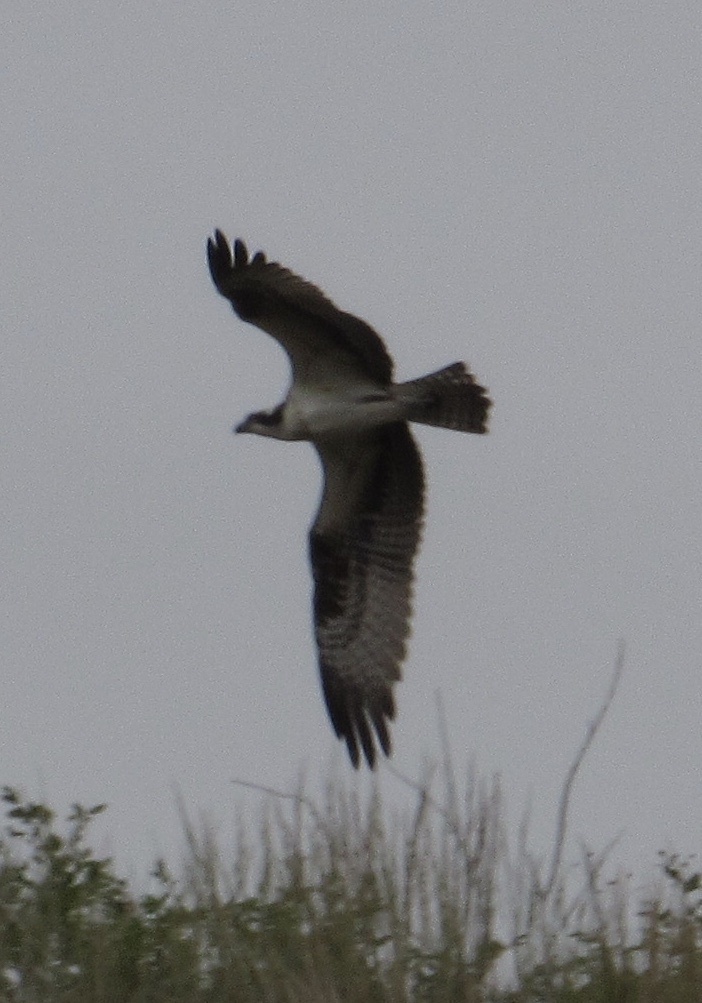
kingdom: Animalia
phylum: Chordata
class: Aves
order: Accipitriformes
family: Pandionidae
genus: Pandion
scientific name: Pandion haliaetus
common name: Osprey
